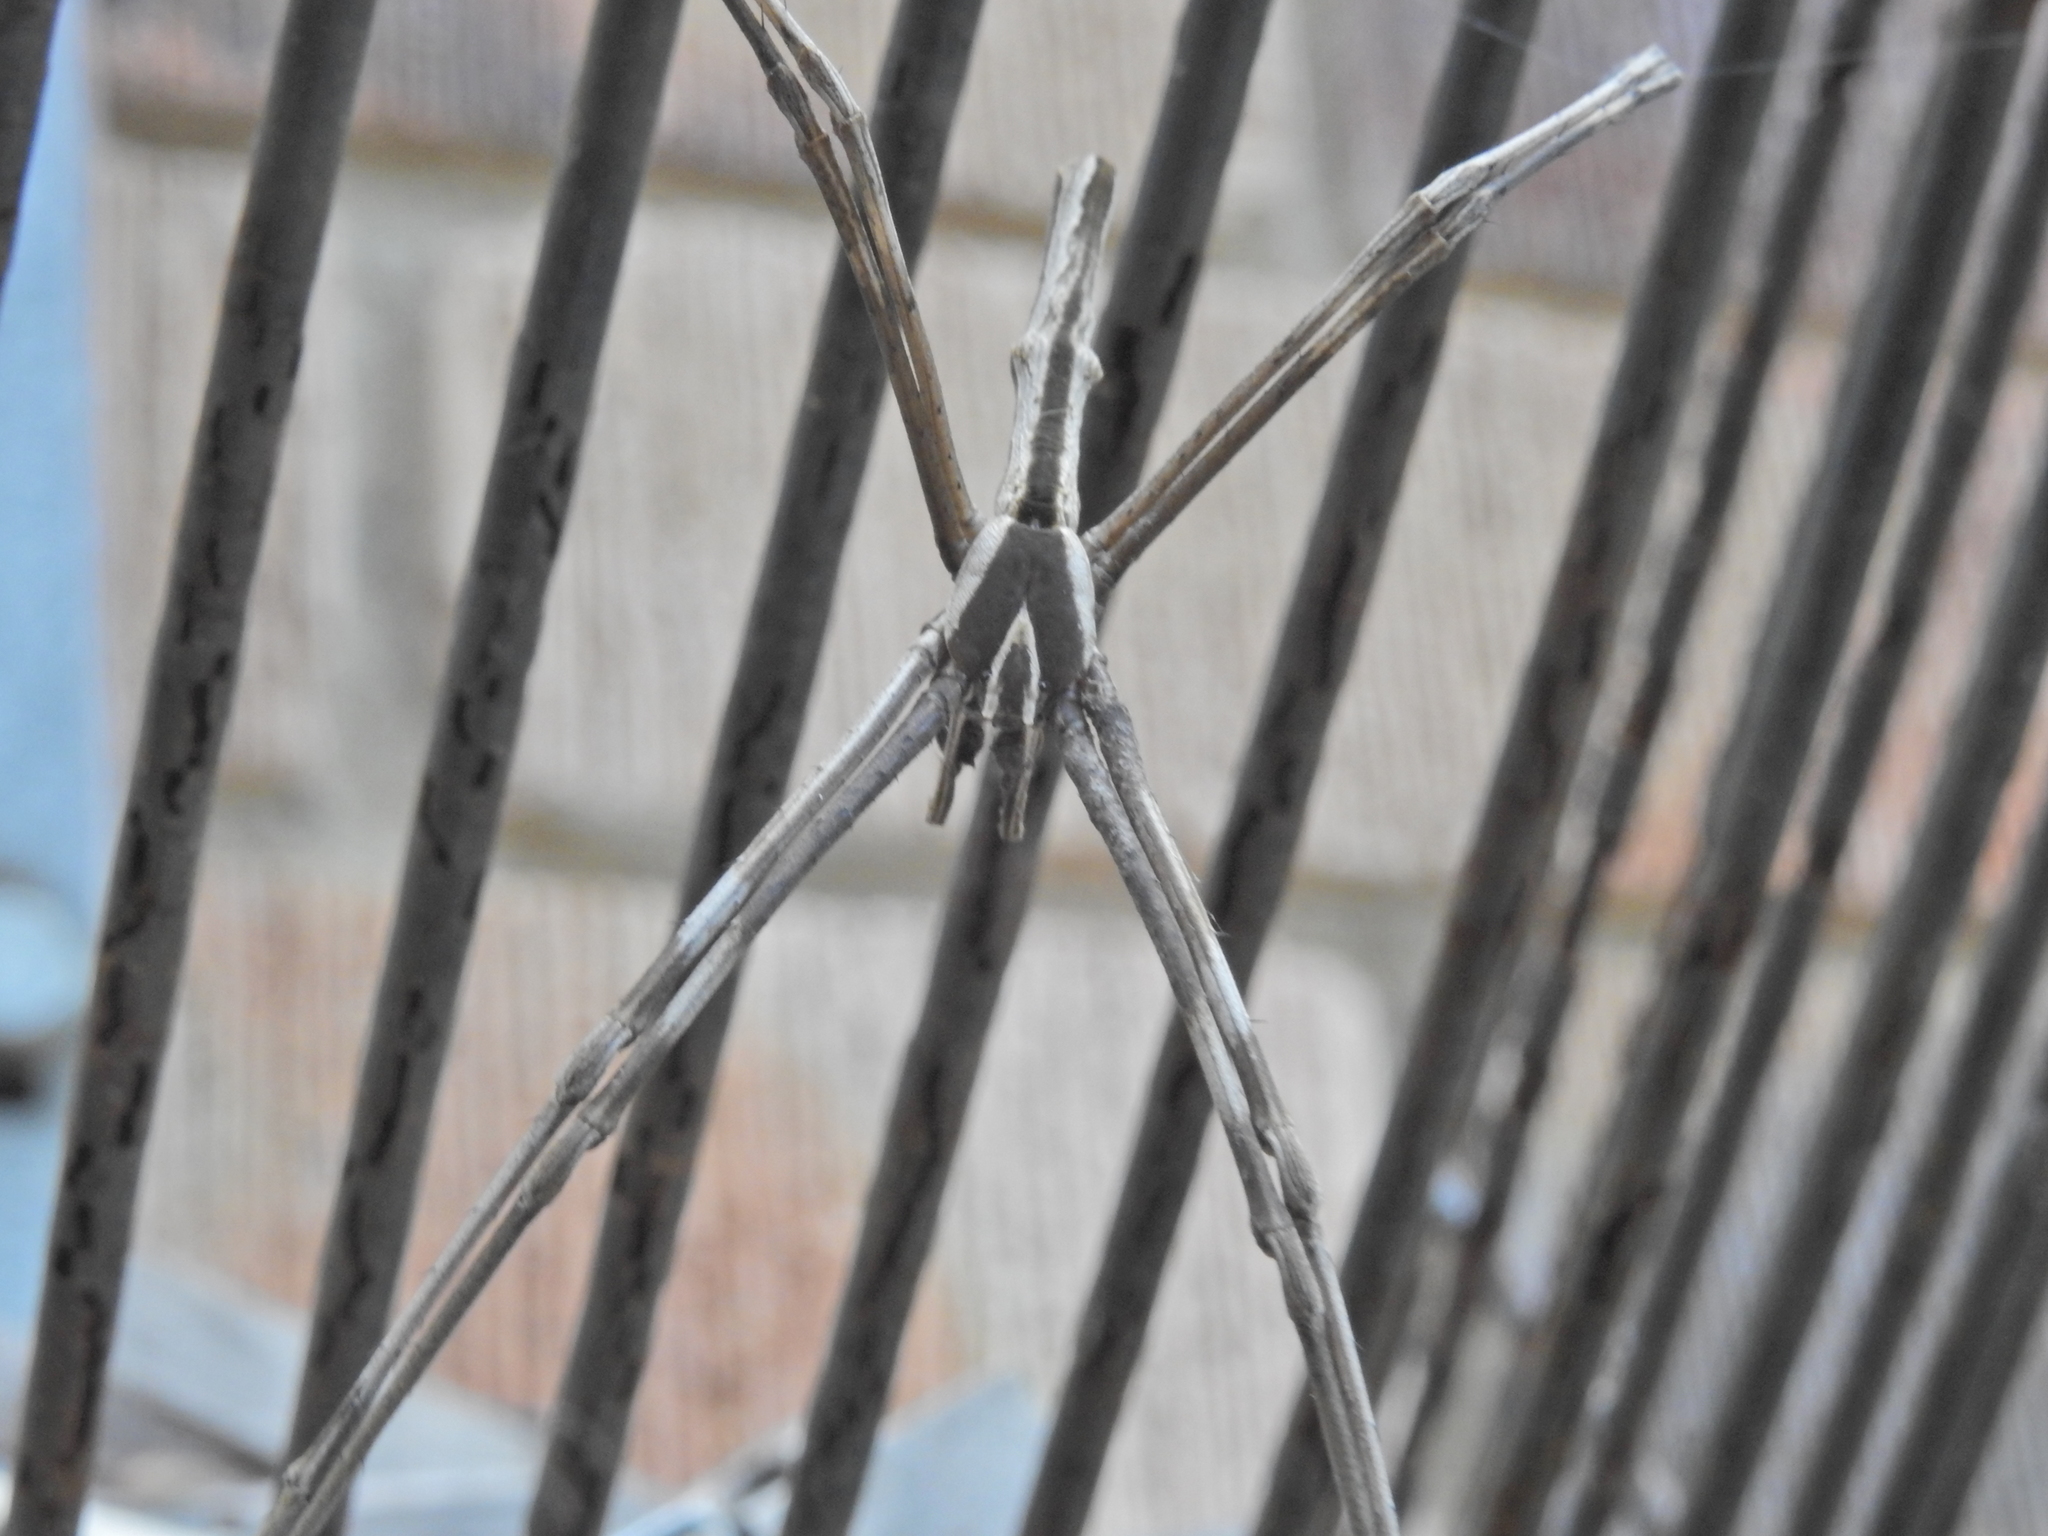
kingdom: Animalia
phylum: Arthropoda
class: Arachnida
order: Araneae
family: Deinopidae
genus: Deinopis
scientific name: Deinopis subrufa
